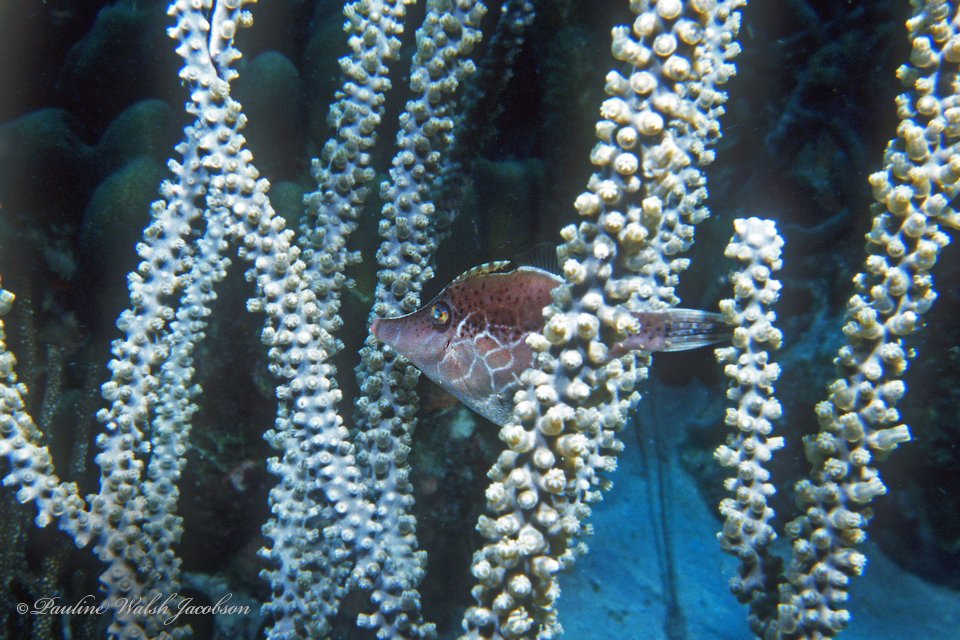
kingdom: Animalia
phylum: Chordata
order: Tetraodontiformes
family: Monacanthidae
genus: Monacanthus
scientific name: Monacanthus tuckeri
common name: Slender filefish
